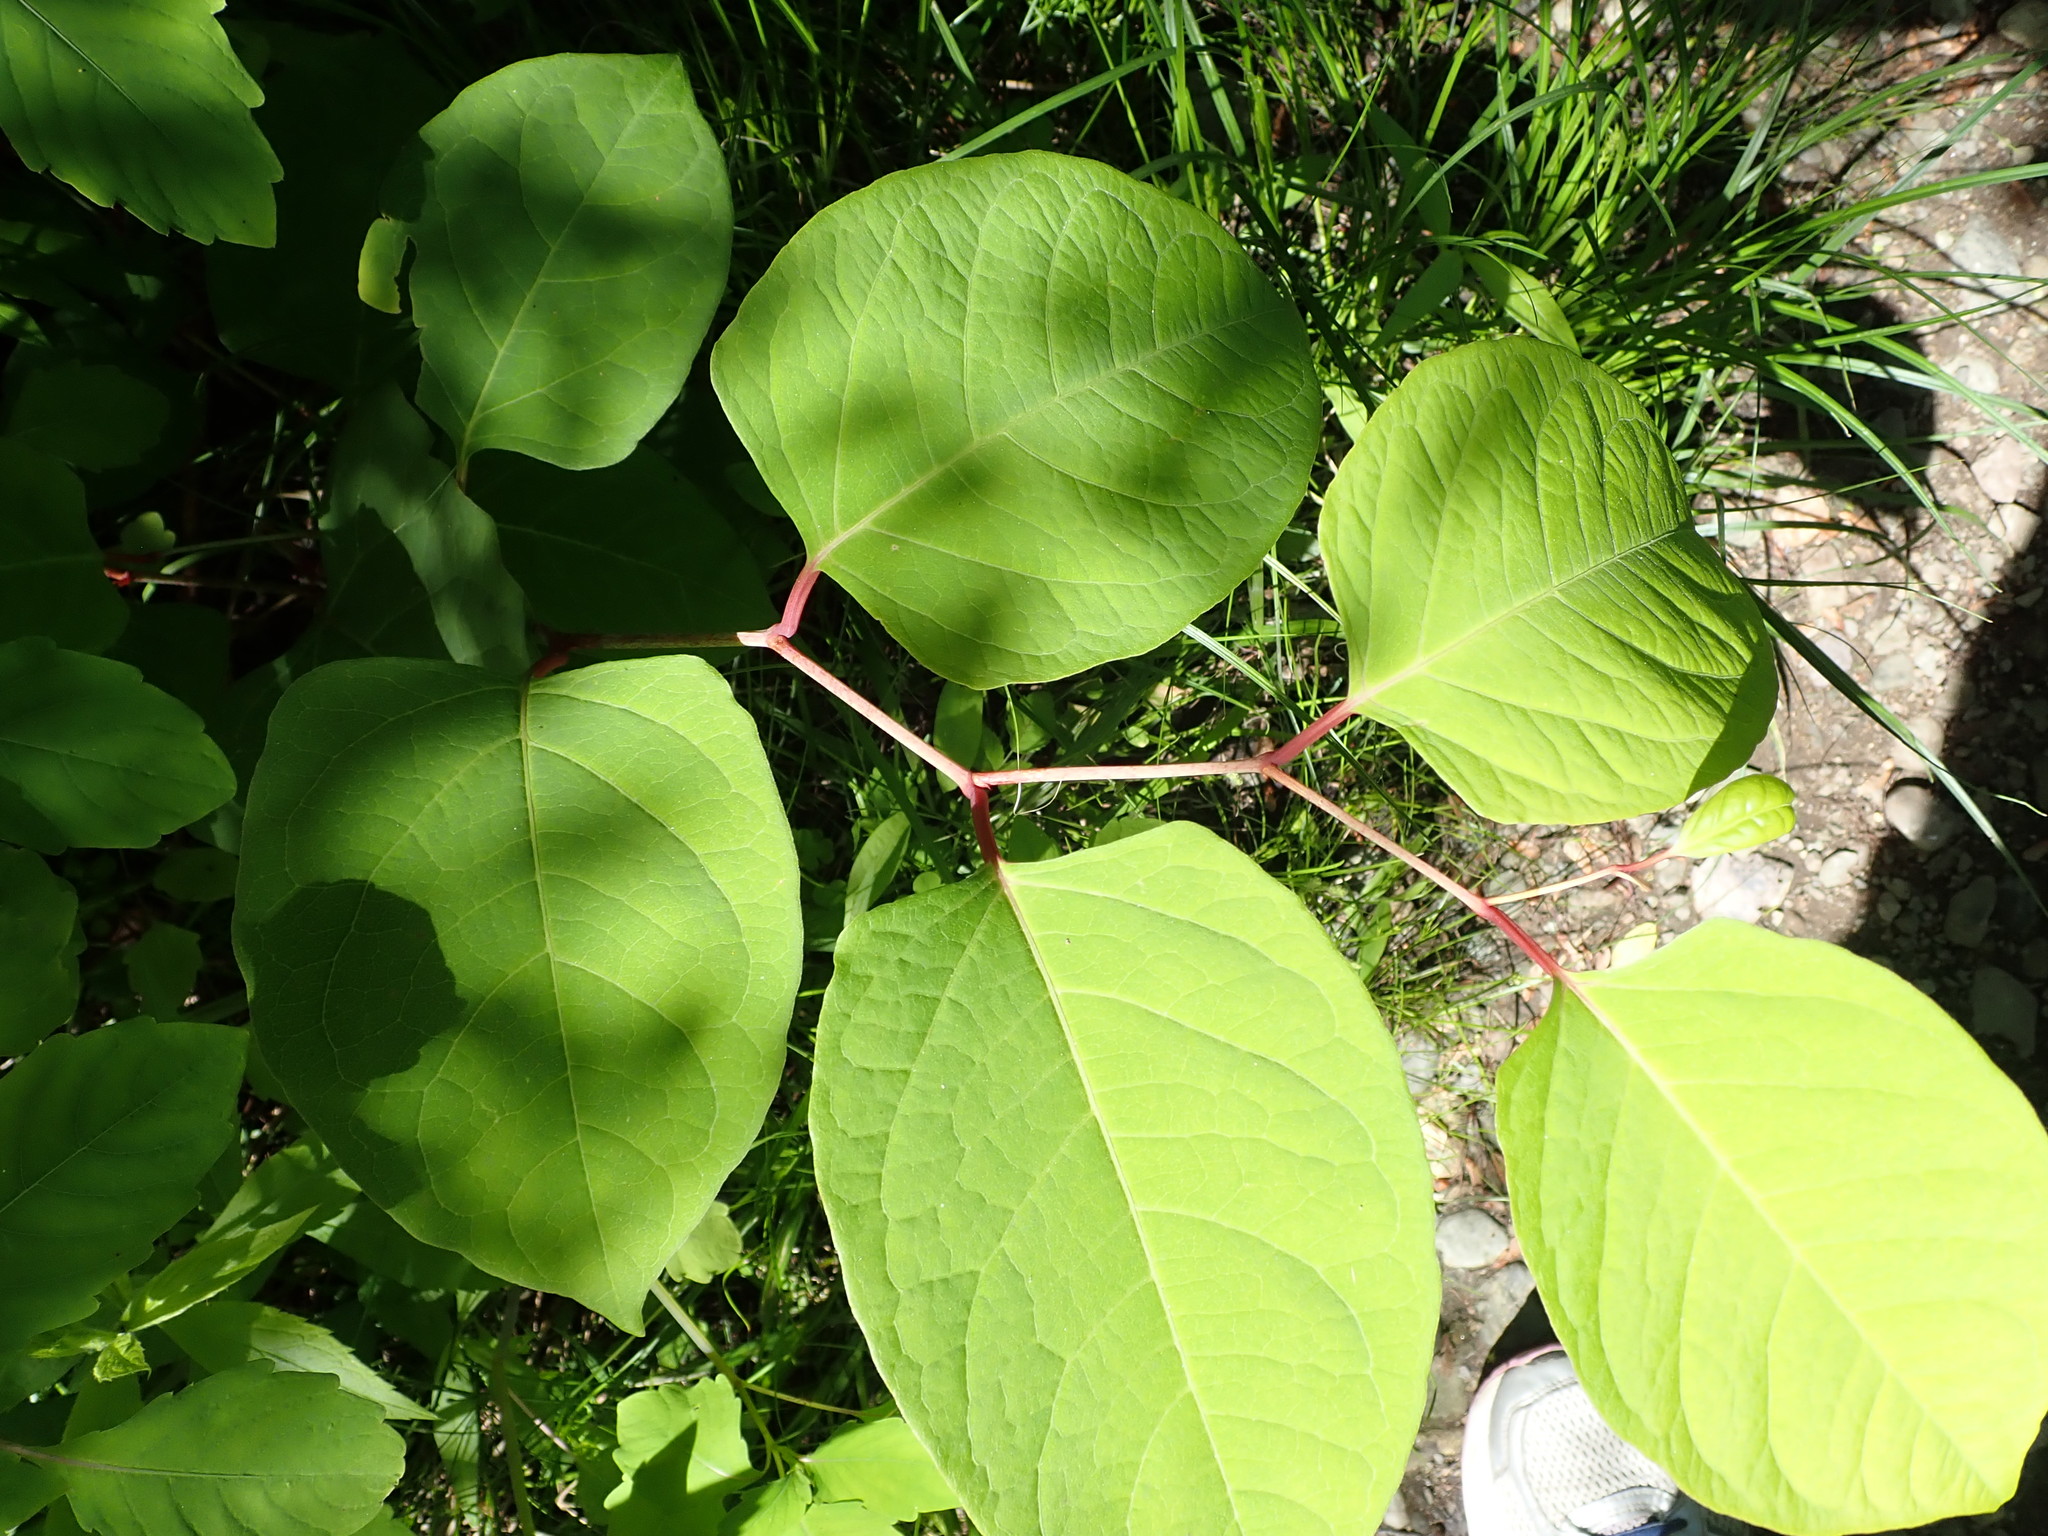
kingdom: Plantae
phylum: Tracheophyta
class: Magnoliopsida
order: Caryophyllales
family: Polygonaceae
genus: Reynoutria
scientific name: Reynoutria japonica
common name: Japanese knotweed
